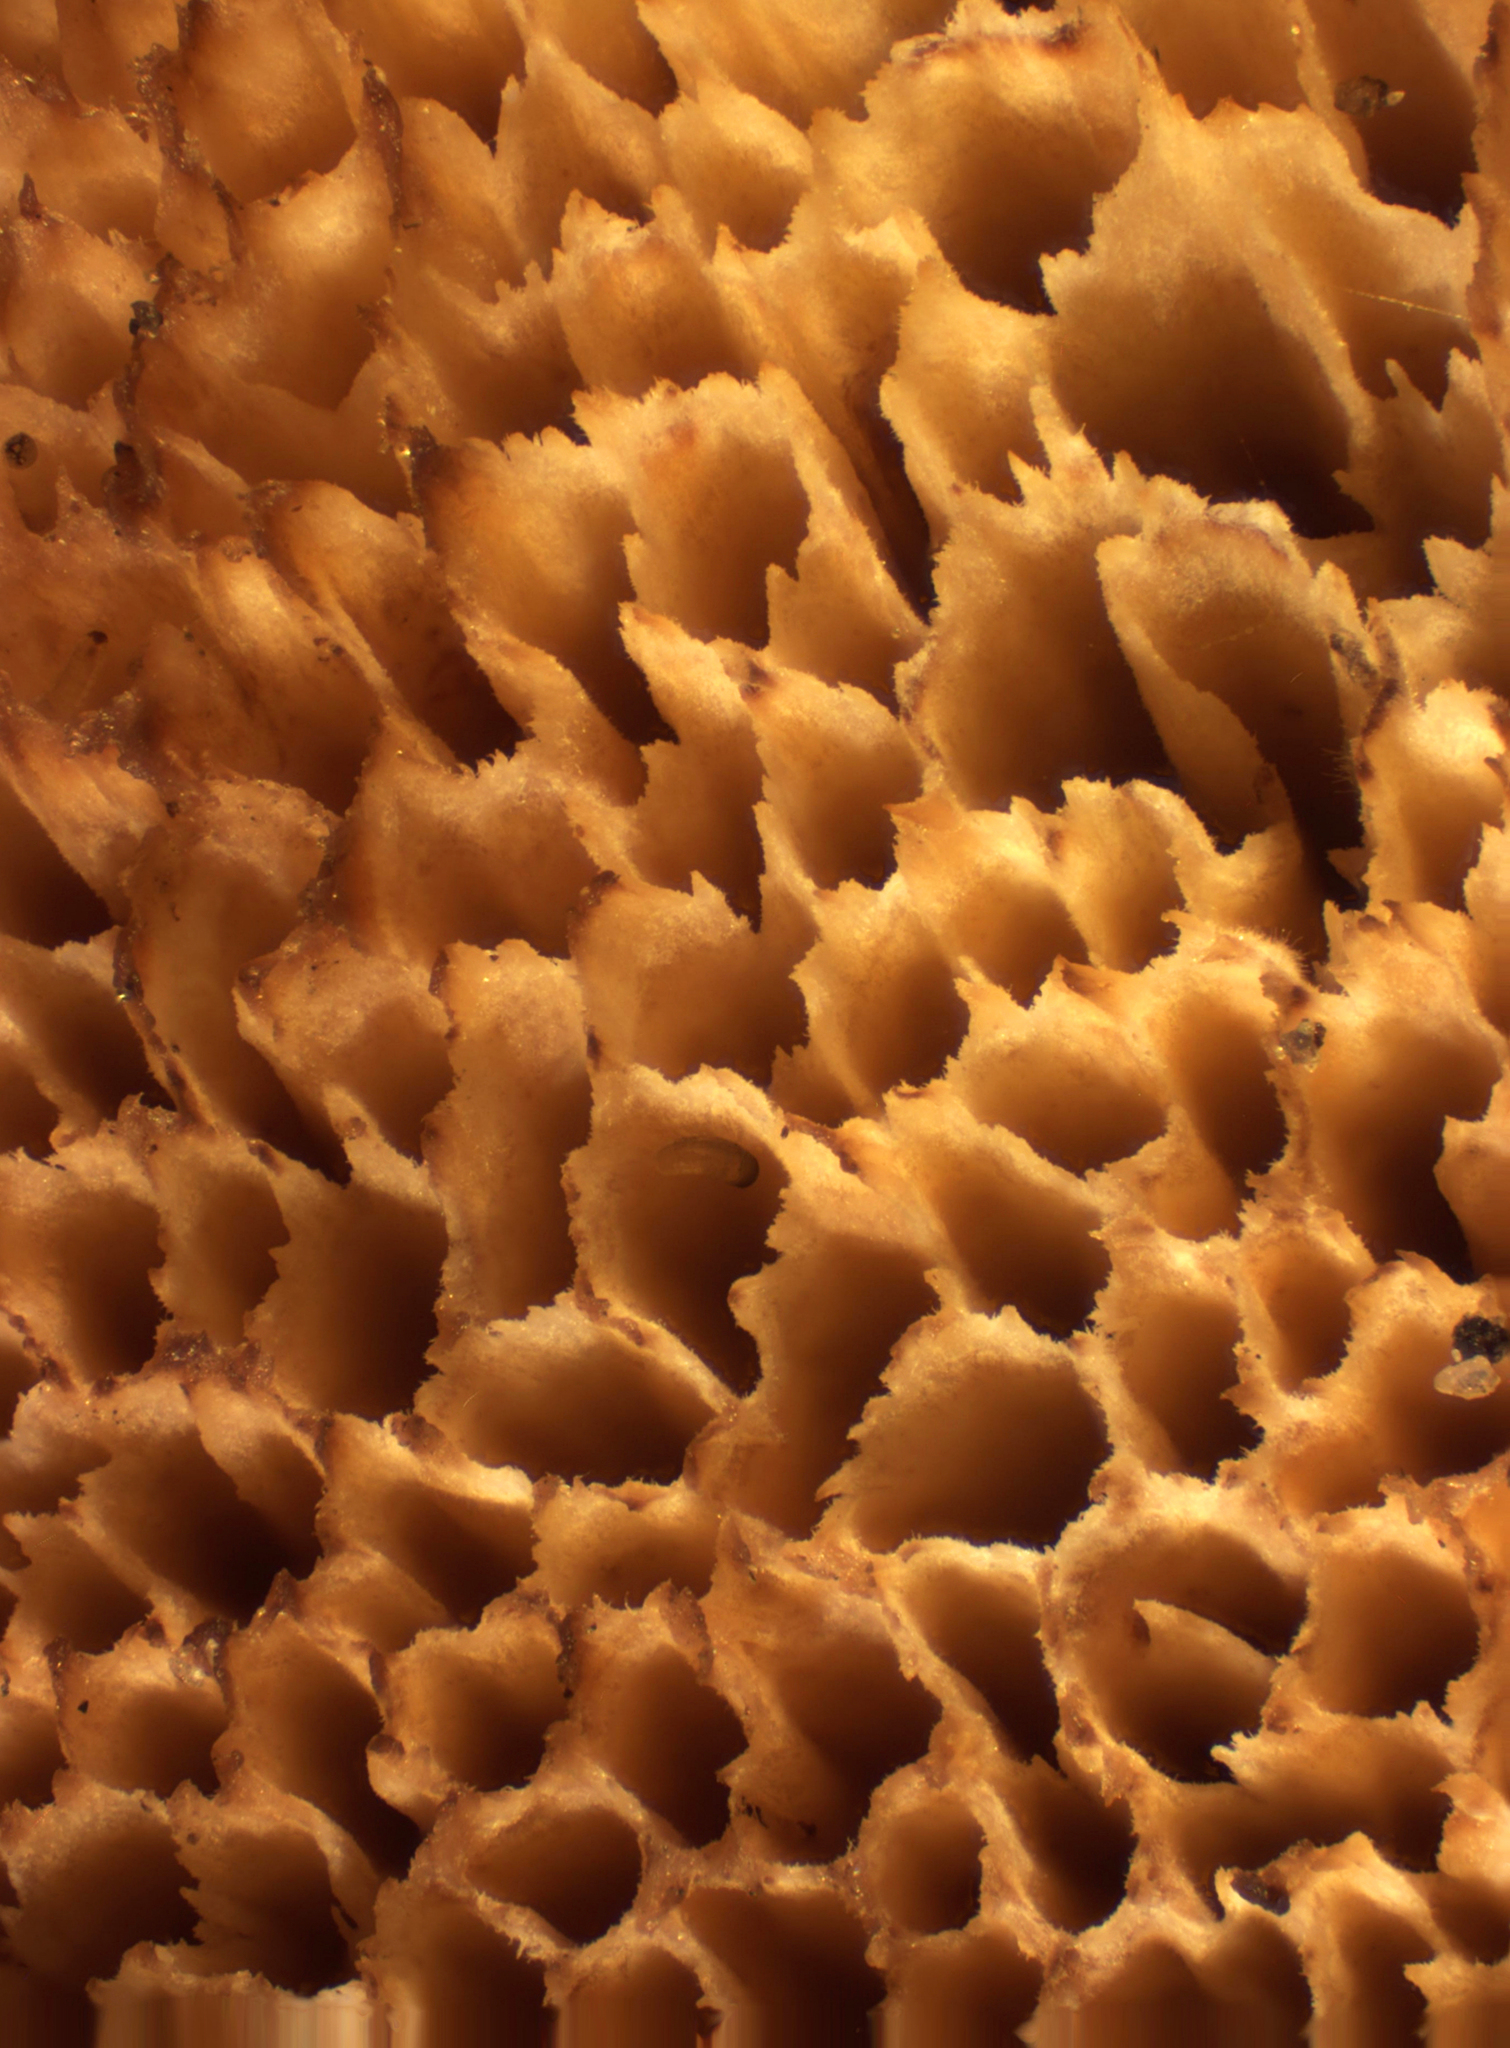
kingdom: Fungi
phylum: Basidiomycota
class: Agaricomycetes
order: Polyporales
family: Pycnoporellaceae
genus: Pycnoporellus
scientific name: Pycnoporellus fulgens
